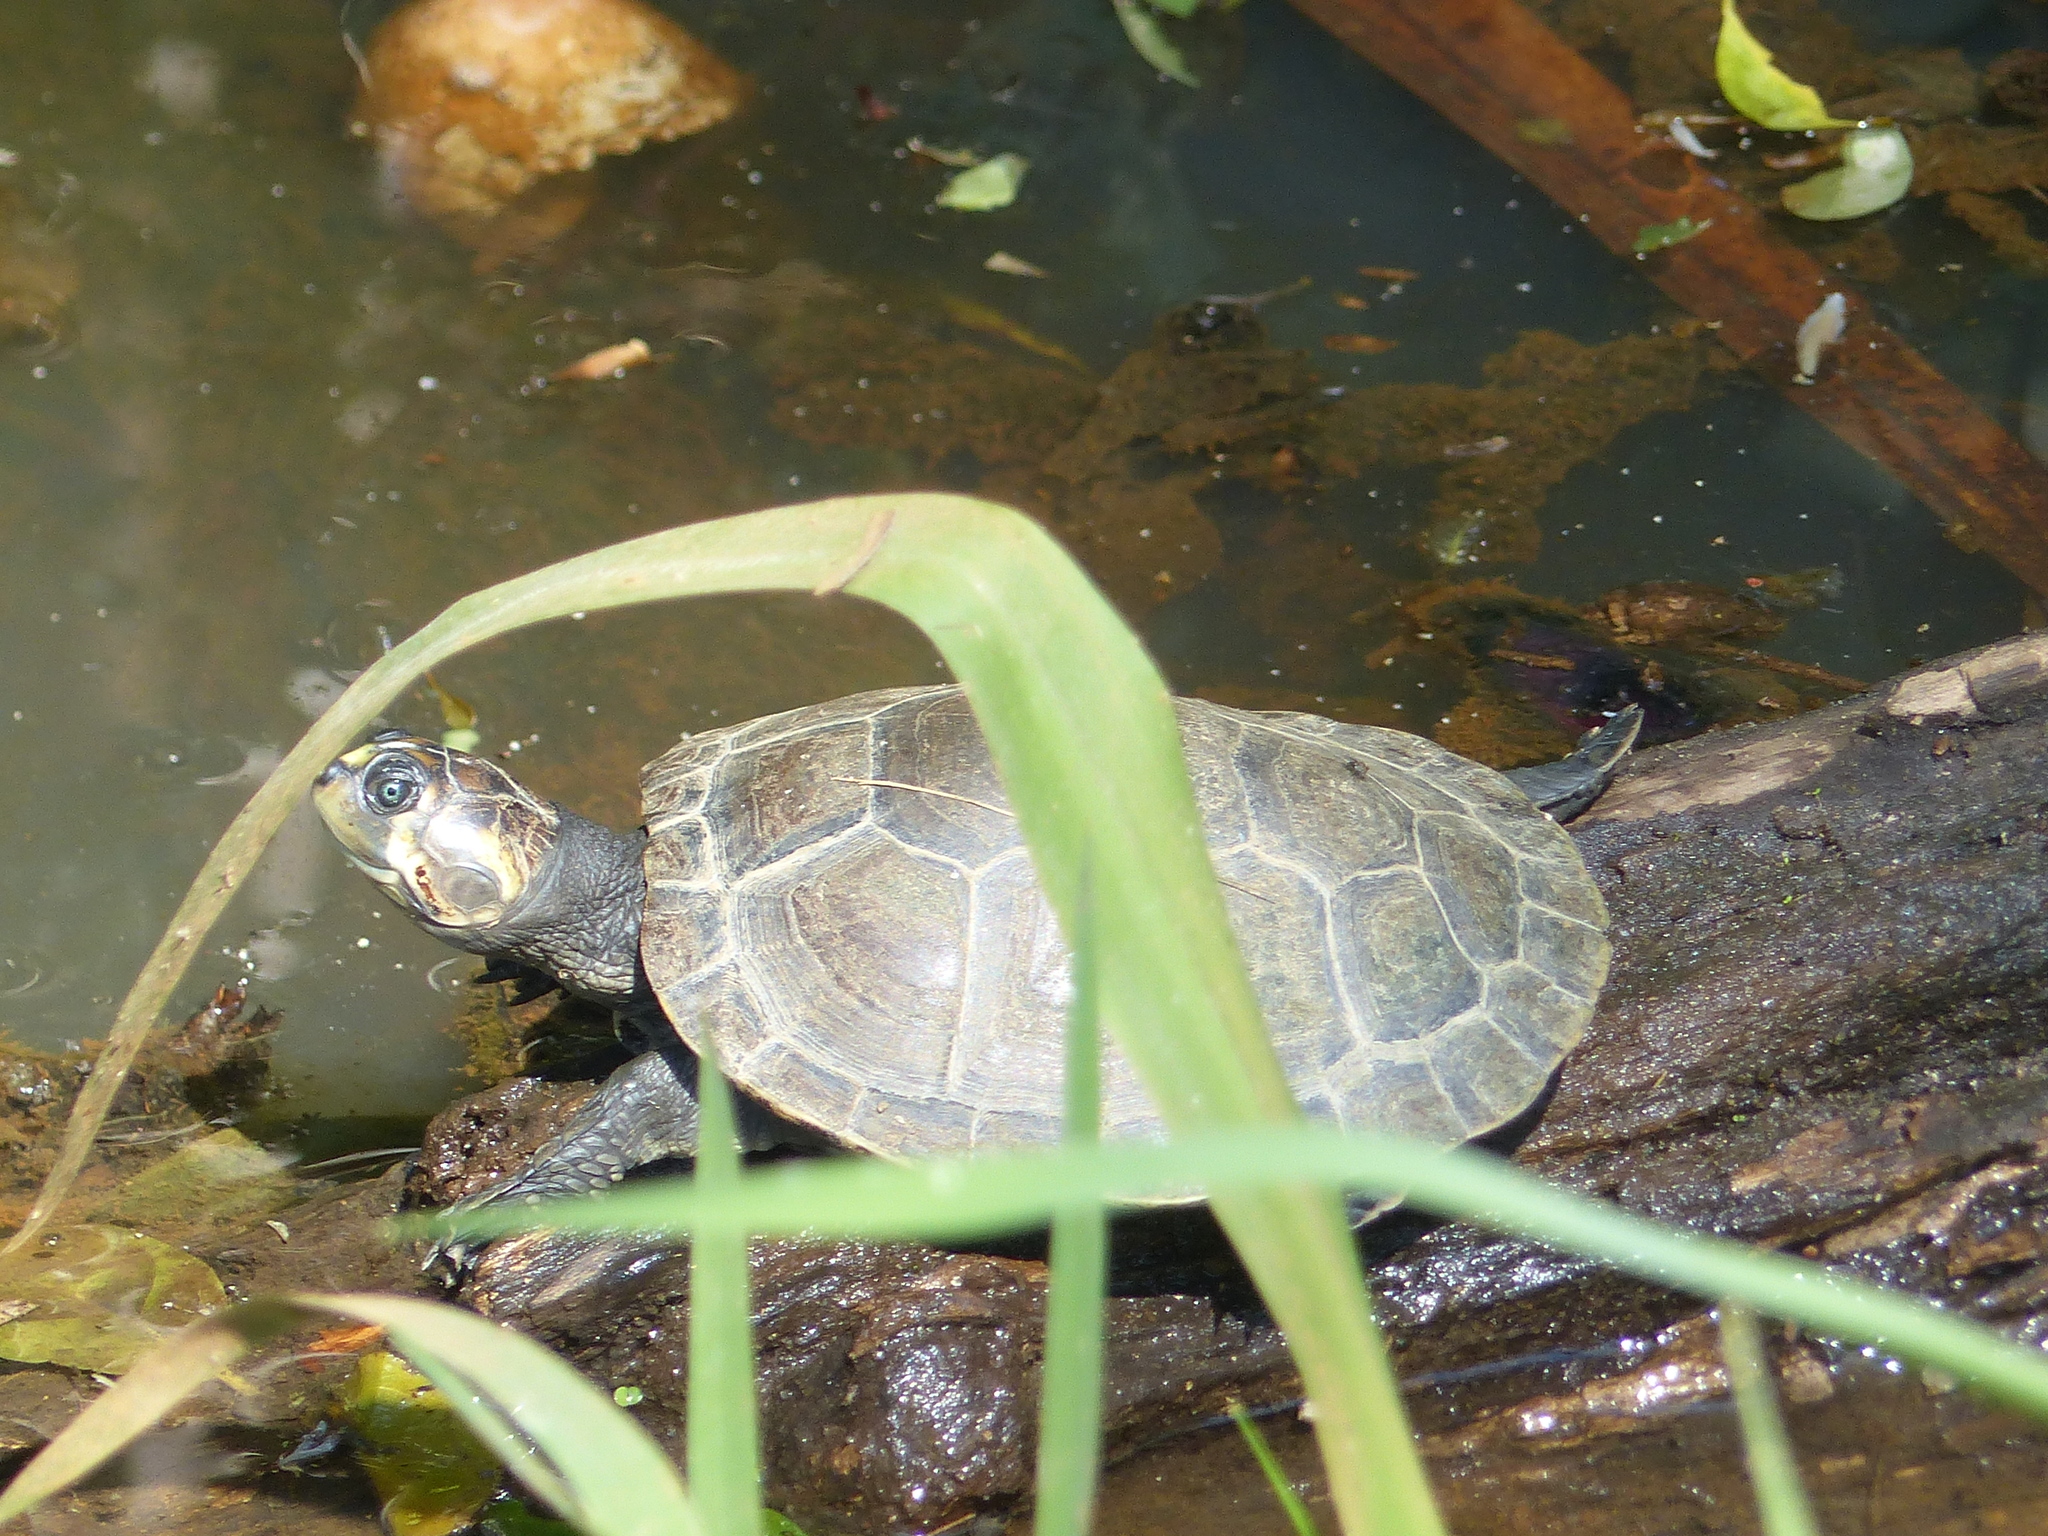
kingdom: Animalia
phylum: Chordata
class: Testudines
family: Podocnemididae
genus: Podocnemis
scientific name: Podocnemis vogli
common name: Savanna side-necked turtle
